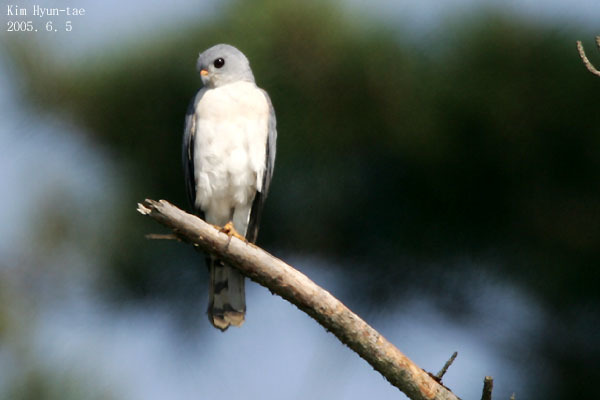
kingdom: Animalia
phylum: Chordata
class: Aves
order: Accipitriformes
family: Accipitridae
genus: Accipiter
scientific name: Accipiter soloensis
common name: Chinese sparrowhawk
